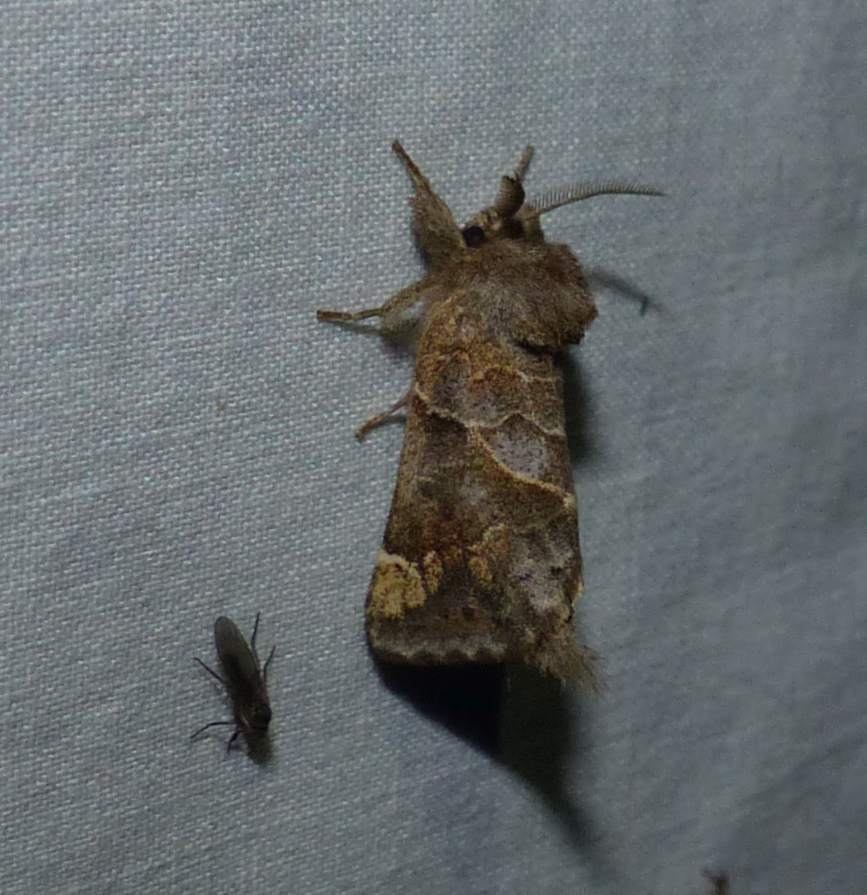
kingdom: Animalia
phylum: Arthropoda
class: Insecta
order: Lepidoptera
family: Notodontidae
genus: Clostera
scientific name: Clostera strigosa
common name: Striped chocolate-tip moth
